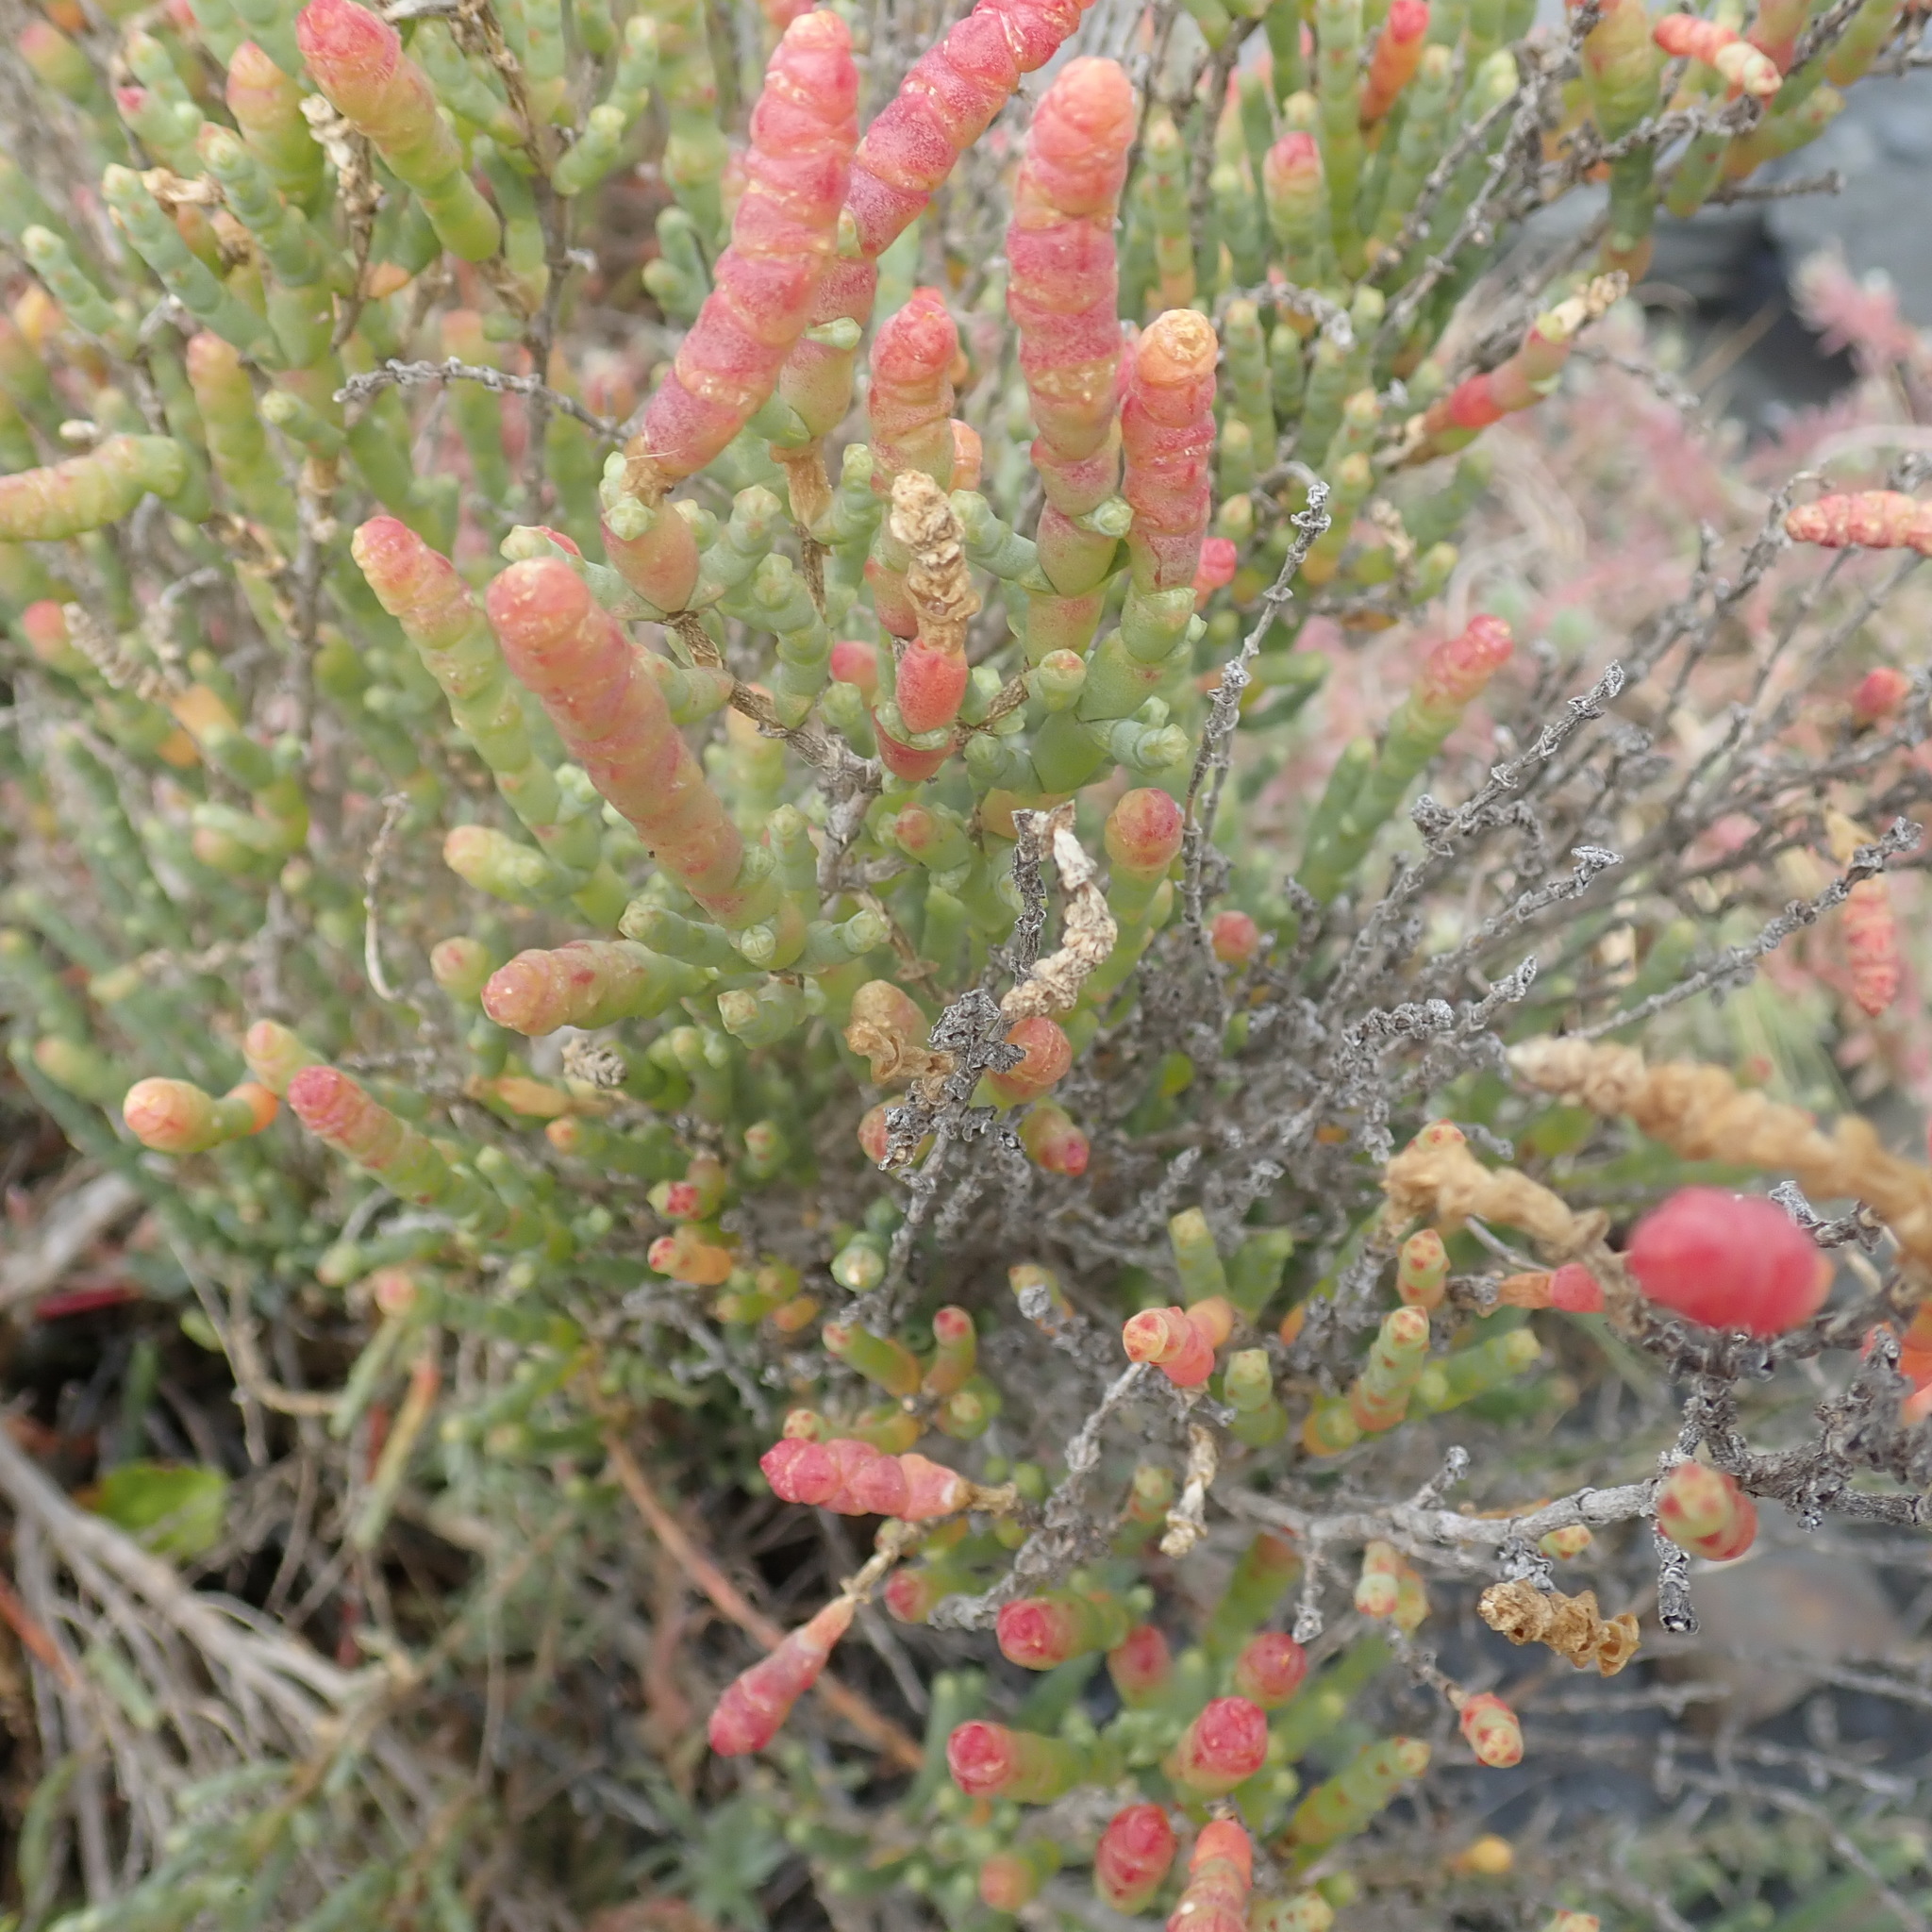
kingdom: Plantae
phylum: Tracheophyta
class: Magnoliopsida
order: Caryophyllales
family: Amaranthaceae
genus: Salicornia
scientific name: Salicornia littorea
